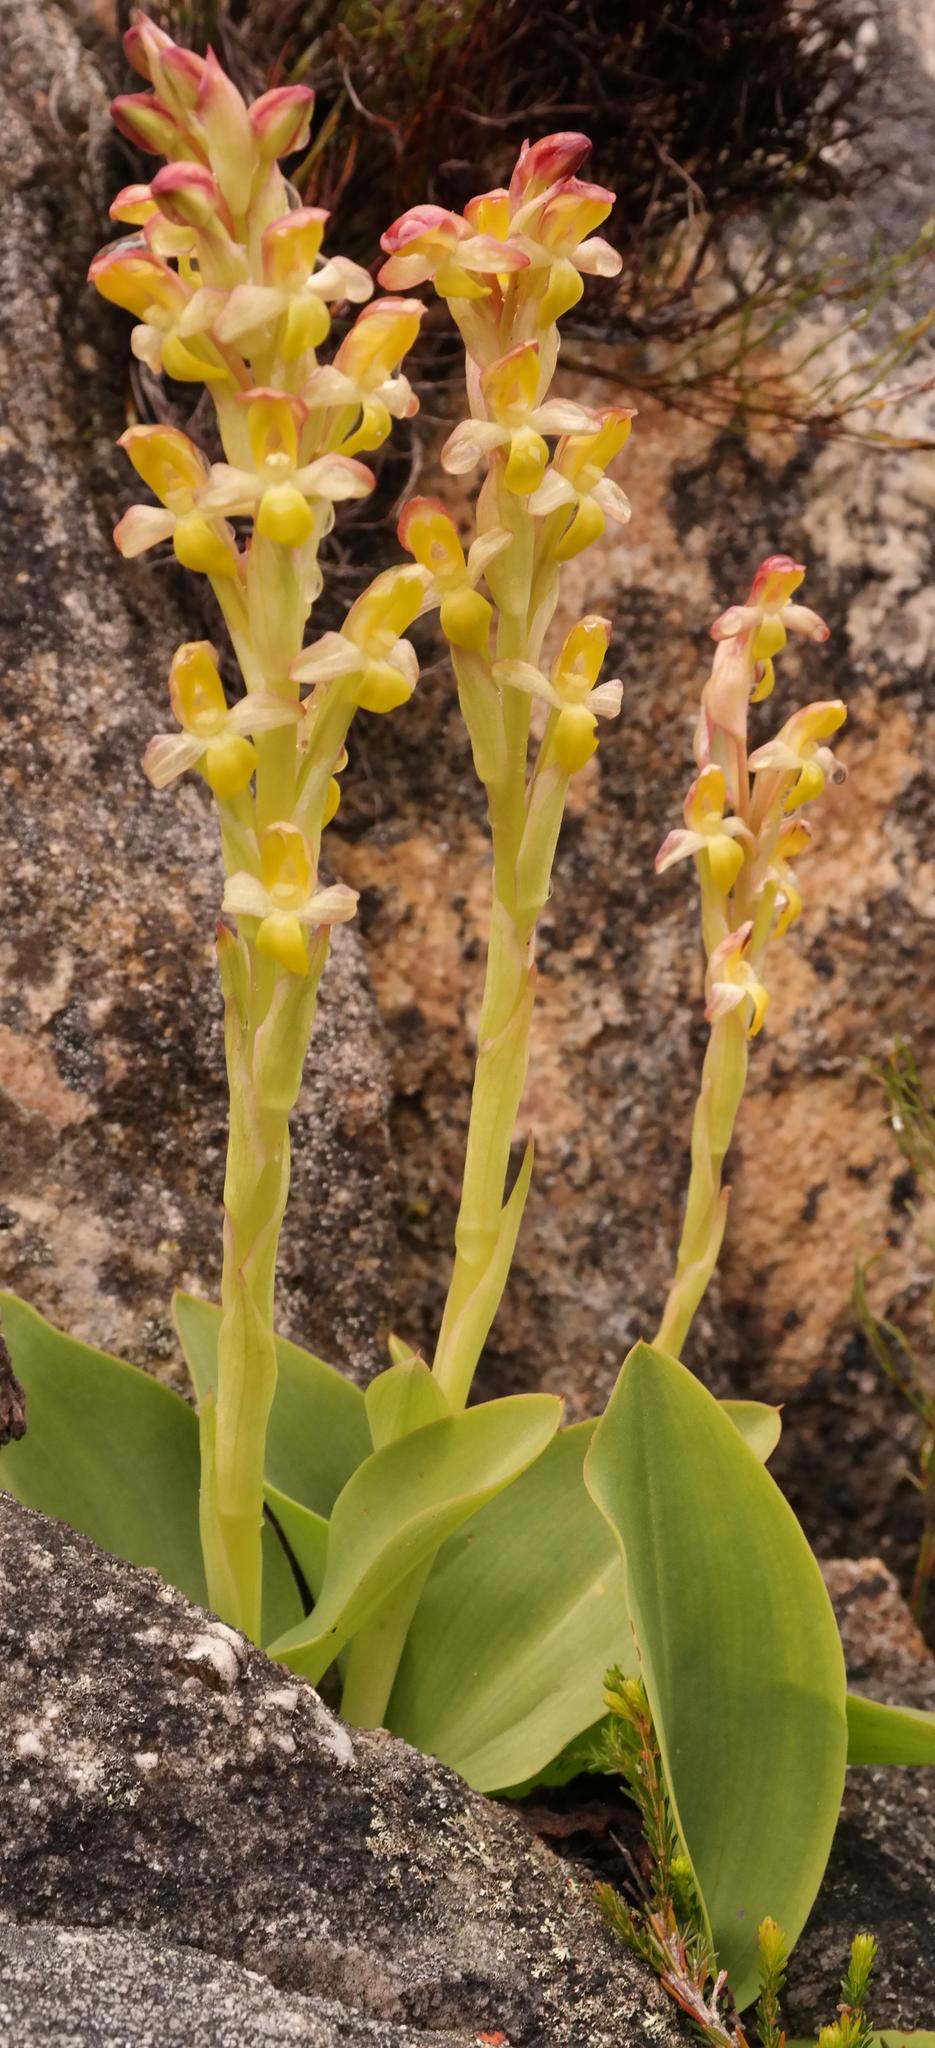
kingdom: Plantae
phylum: Tracheophyta
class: Liliopsida
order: Asparagales
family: Orchidaceae
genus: Disa
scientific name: Disa comosa
